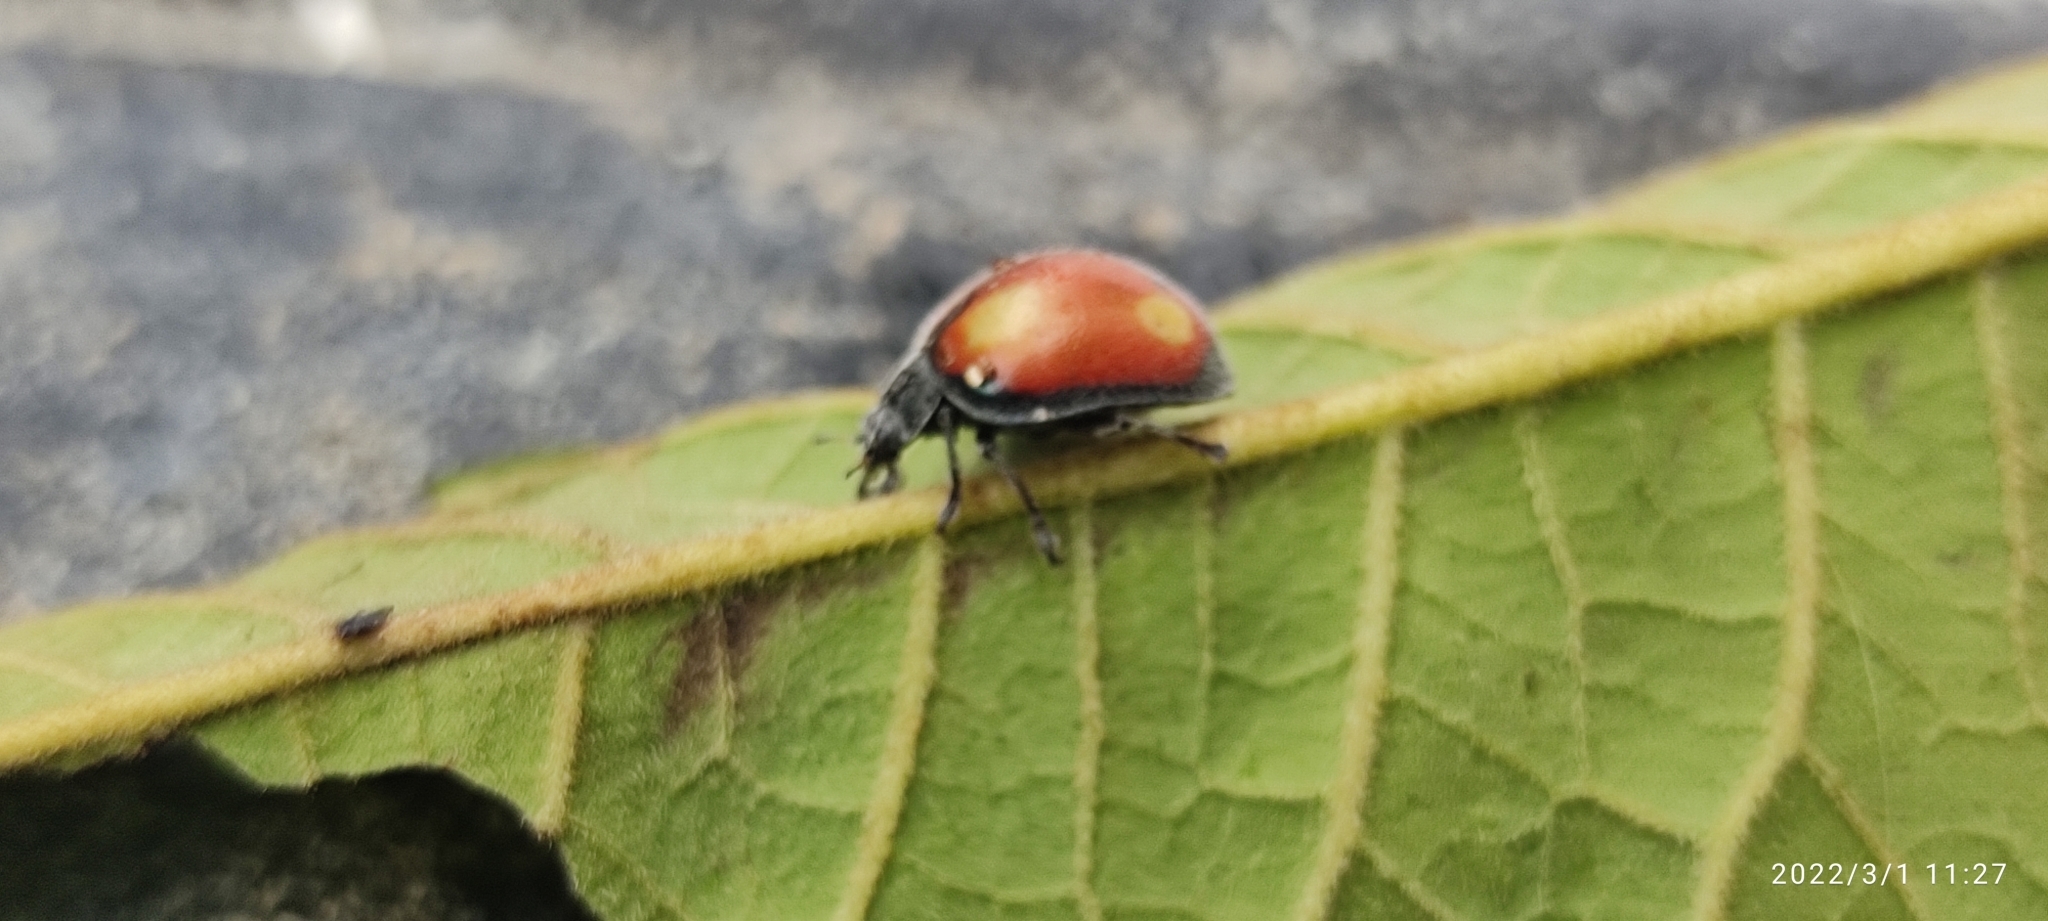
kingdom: Animalia
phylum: Arthropoda
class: Insecta
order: Coleoptera
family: Coccinellidae
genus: Epilachna
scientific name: Epilachna dorsigera
